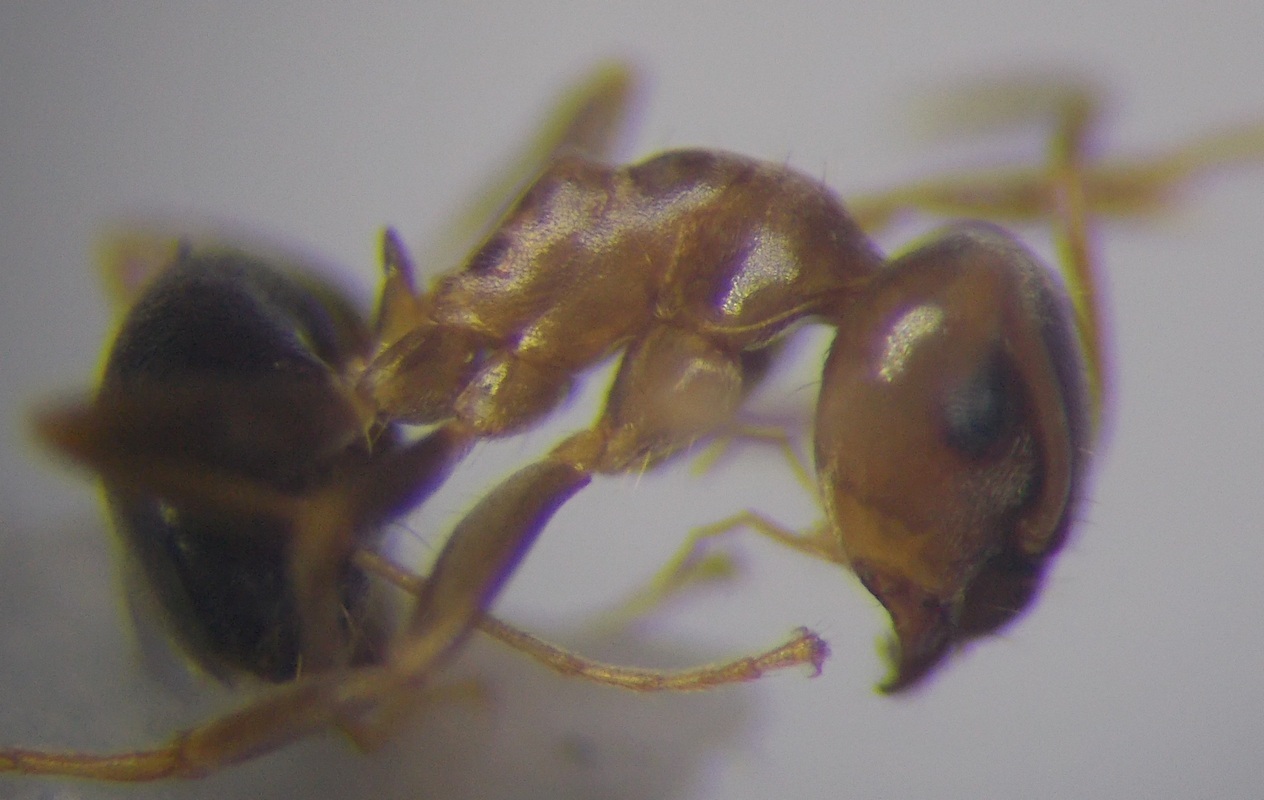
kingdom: Animalia
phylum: Arthropoda
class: Insecta
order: Hymenoptera
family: Formicidae
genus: Lasius
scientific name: Lasius psammophilus
